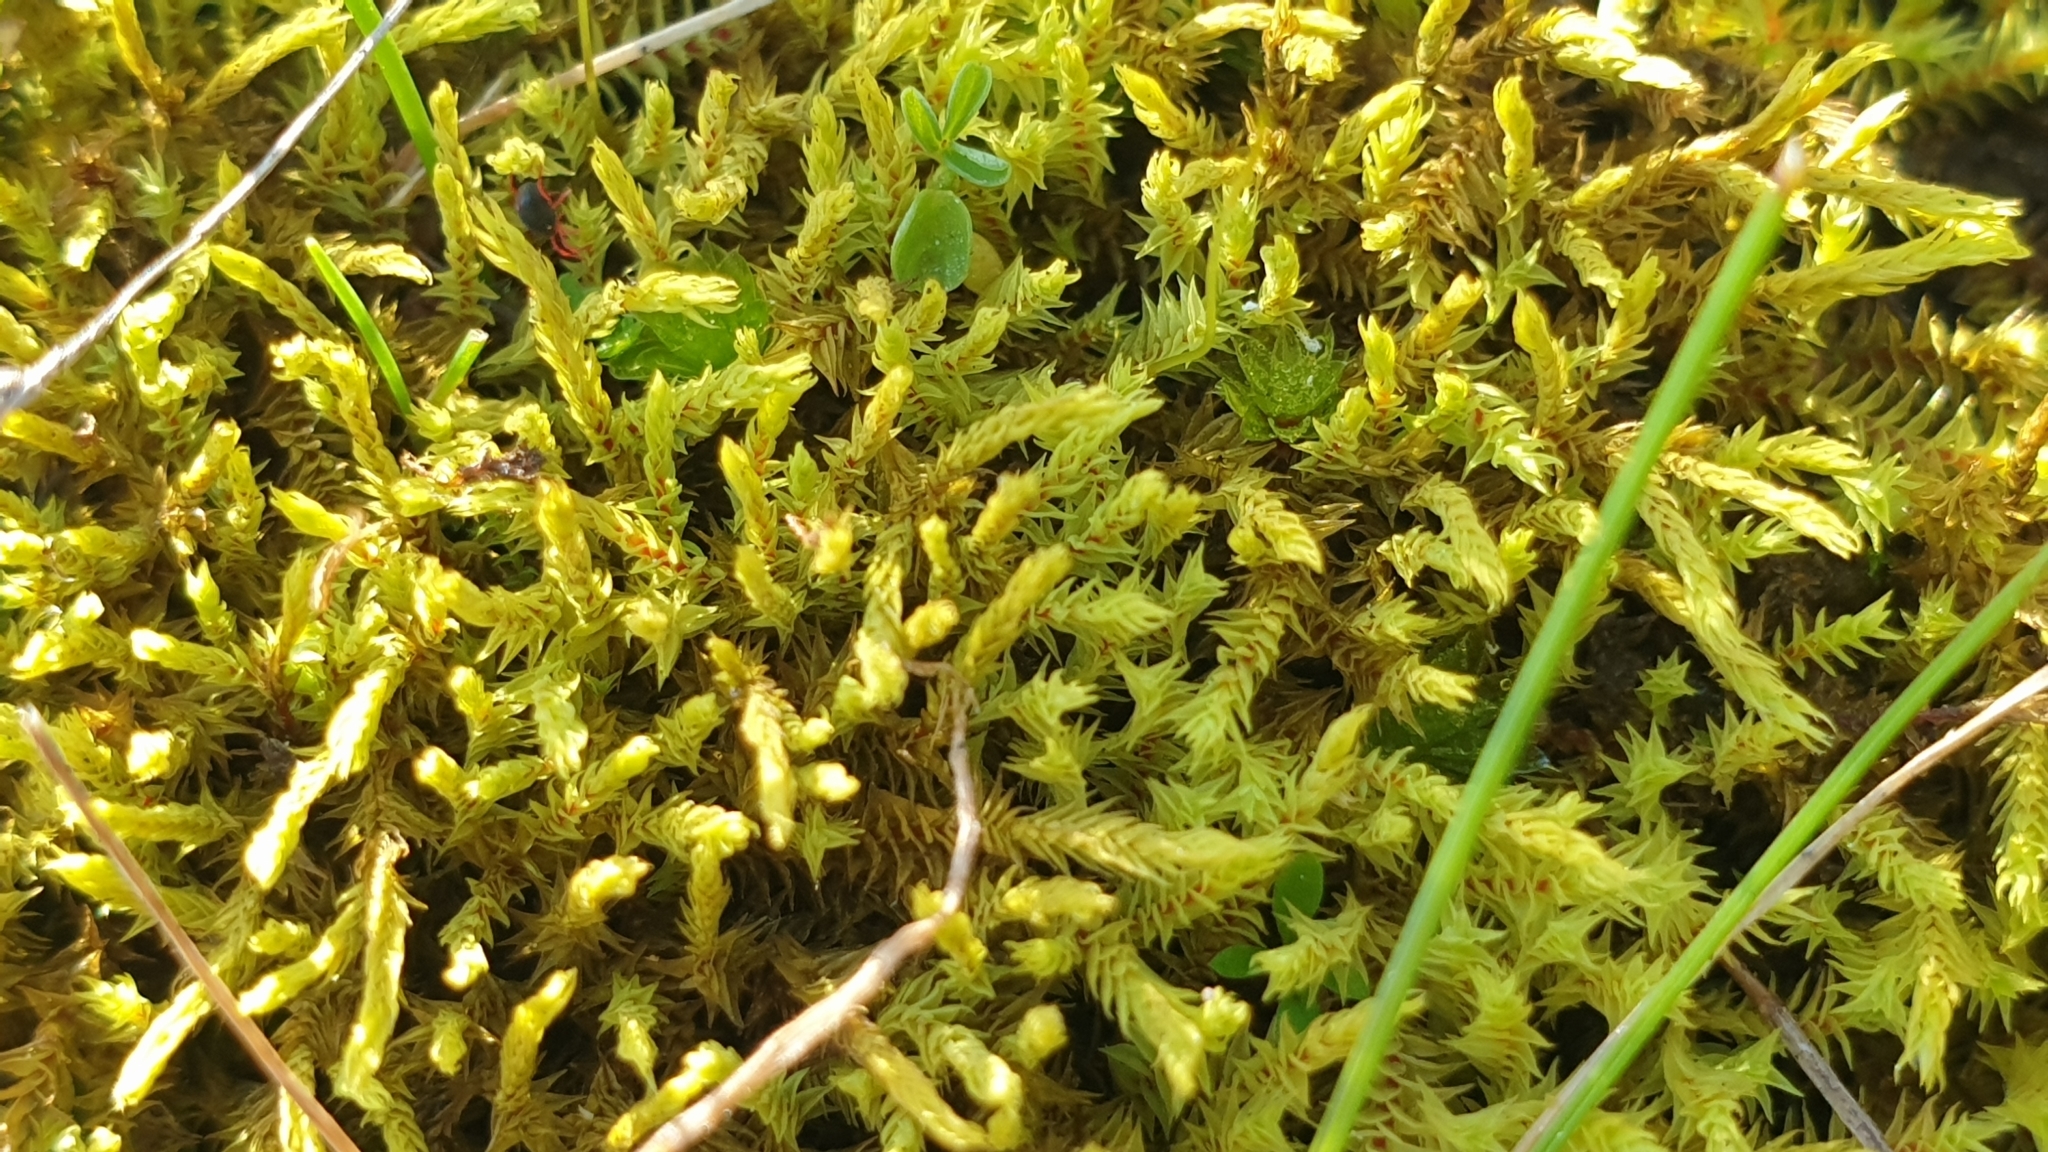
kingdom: Plantae
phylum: Bryophyta
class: Bryopsida
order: Pottiales
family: Pottiaceae
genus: Triquetrella
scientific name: Triquetrella papillata
